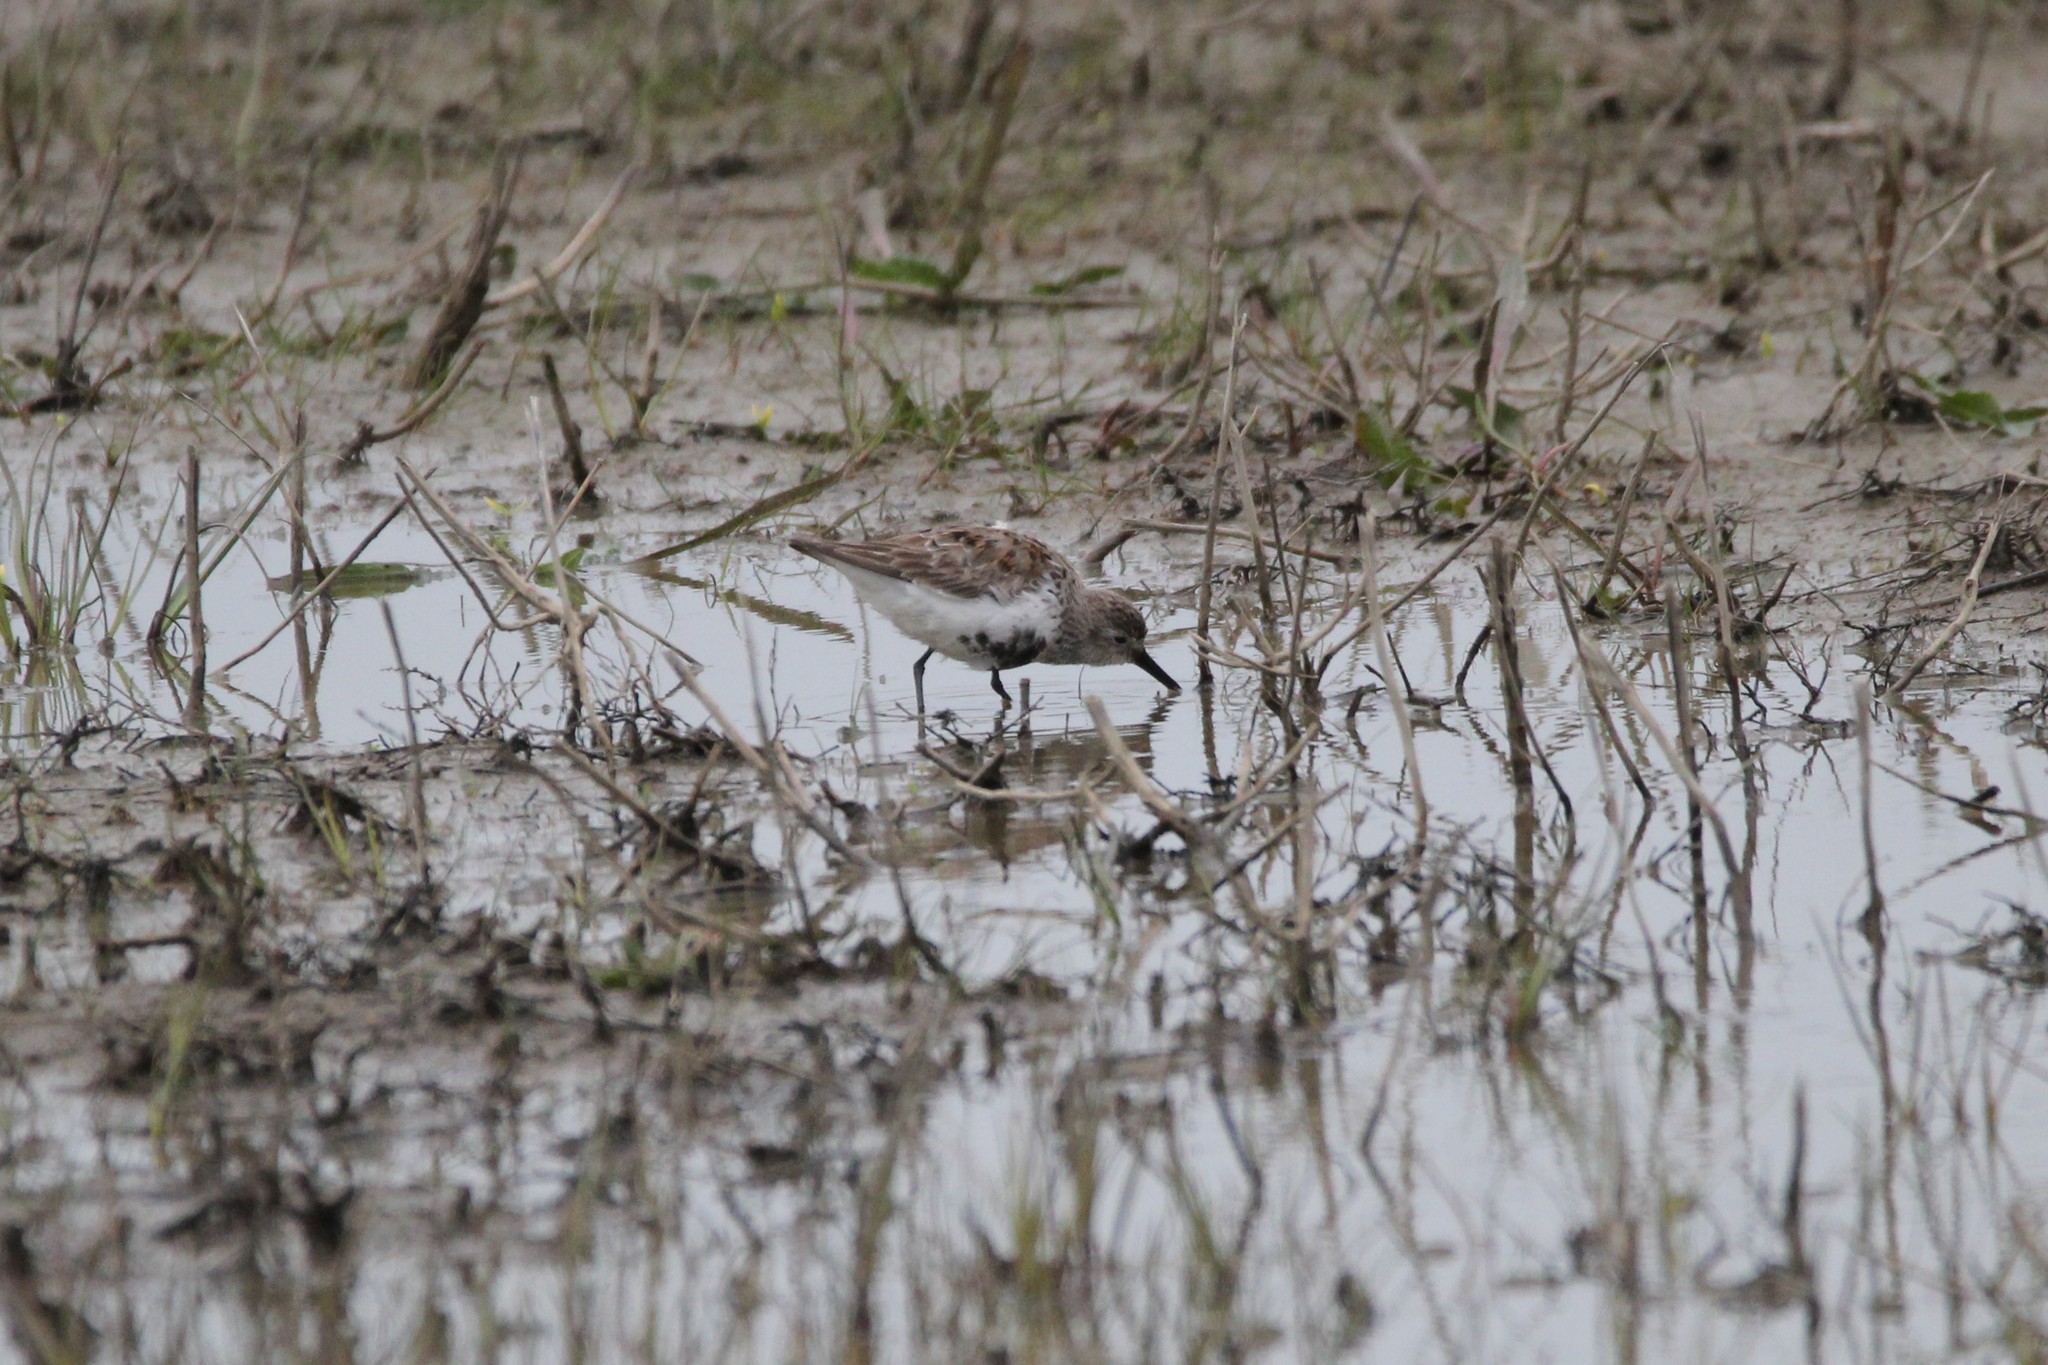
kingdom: Animalia
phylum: Chordata
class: Aves
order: Charadriiformes
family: Scolopacidae
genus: Calidris
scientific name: Calidris alpina
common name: Dunlin
